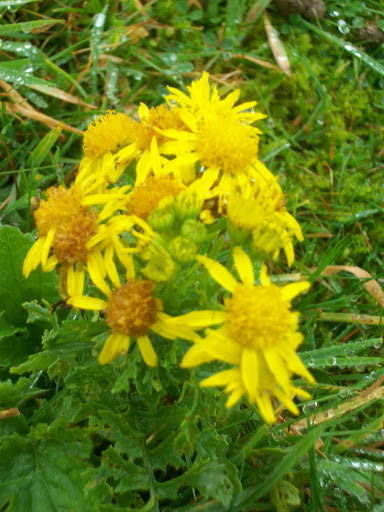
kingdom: Plantae
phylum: Tracheophyta
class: Magnoliopsida
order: Asterales
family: Asteraceae
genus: Jacobaea
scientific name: Jacobaea vulgaris
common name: Stinking willie
